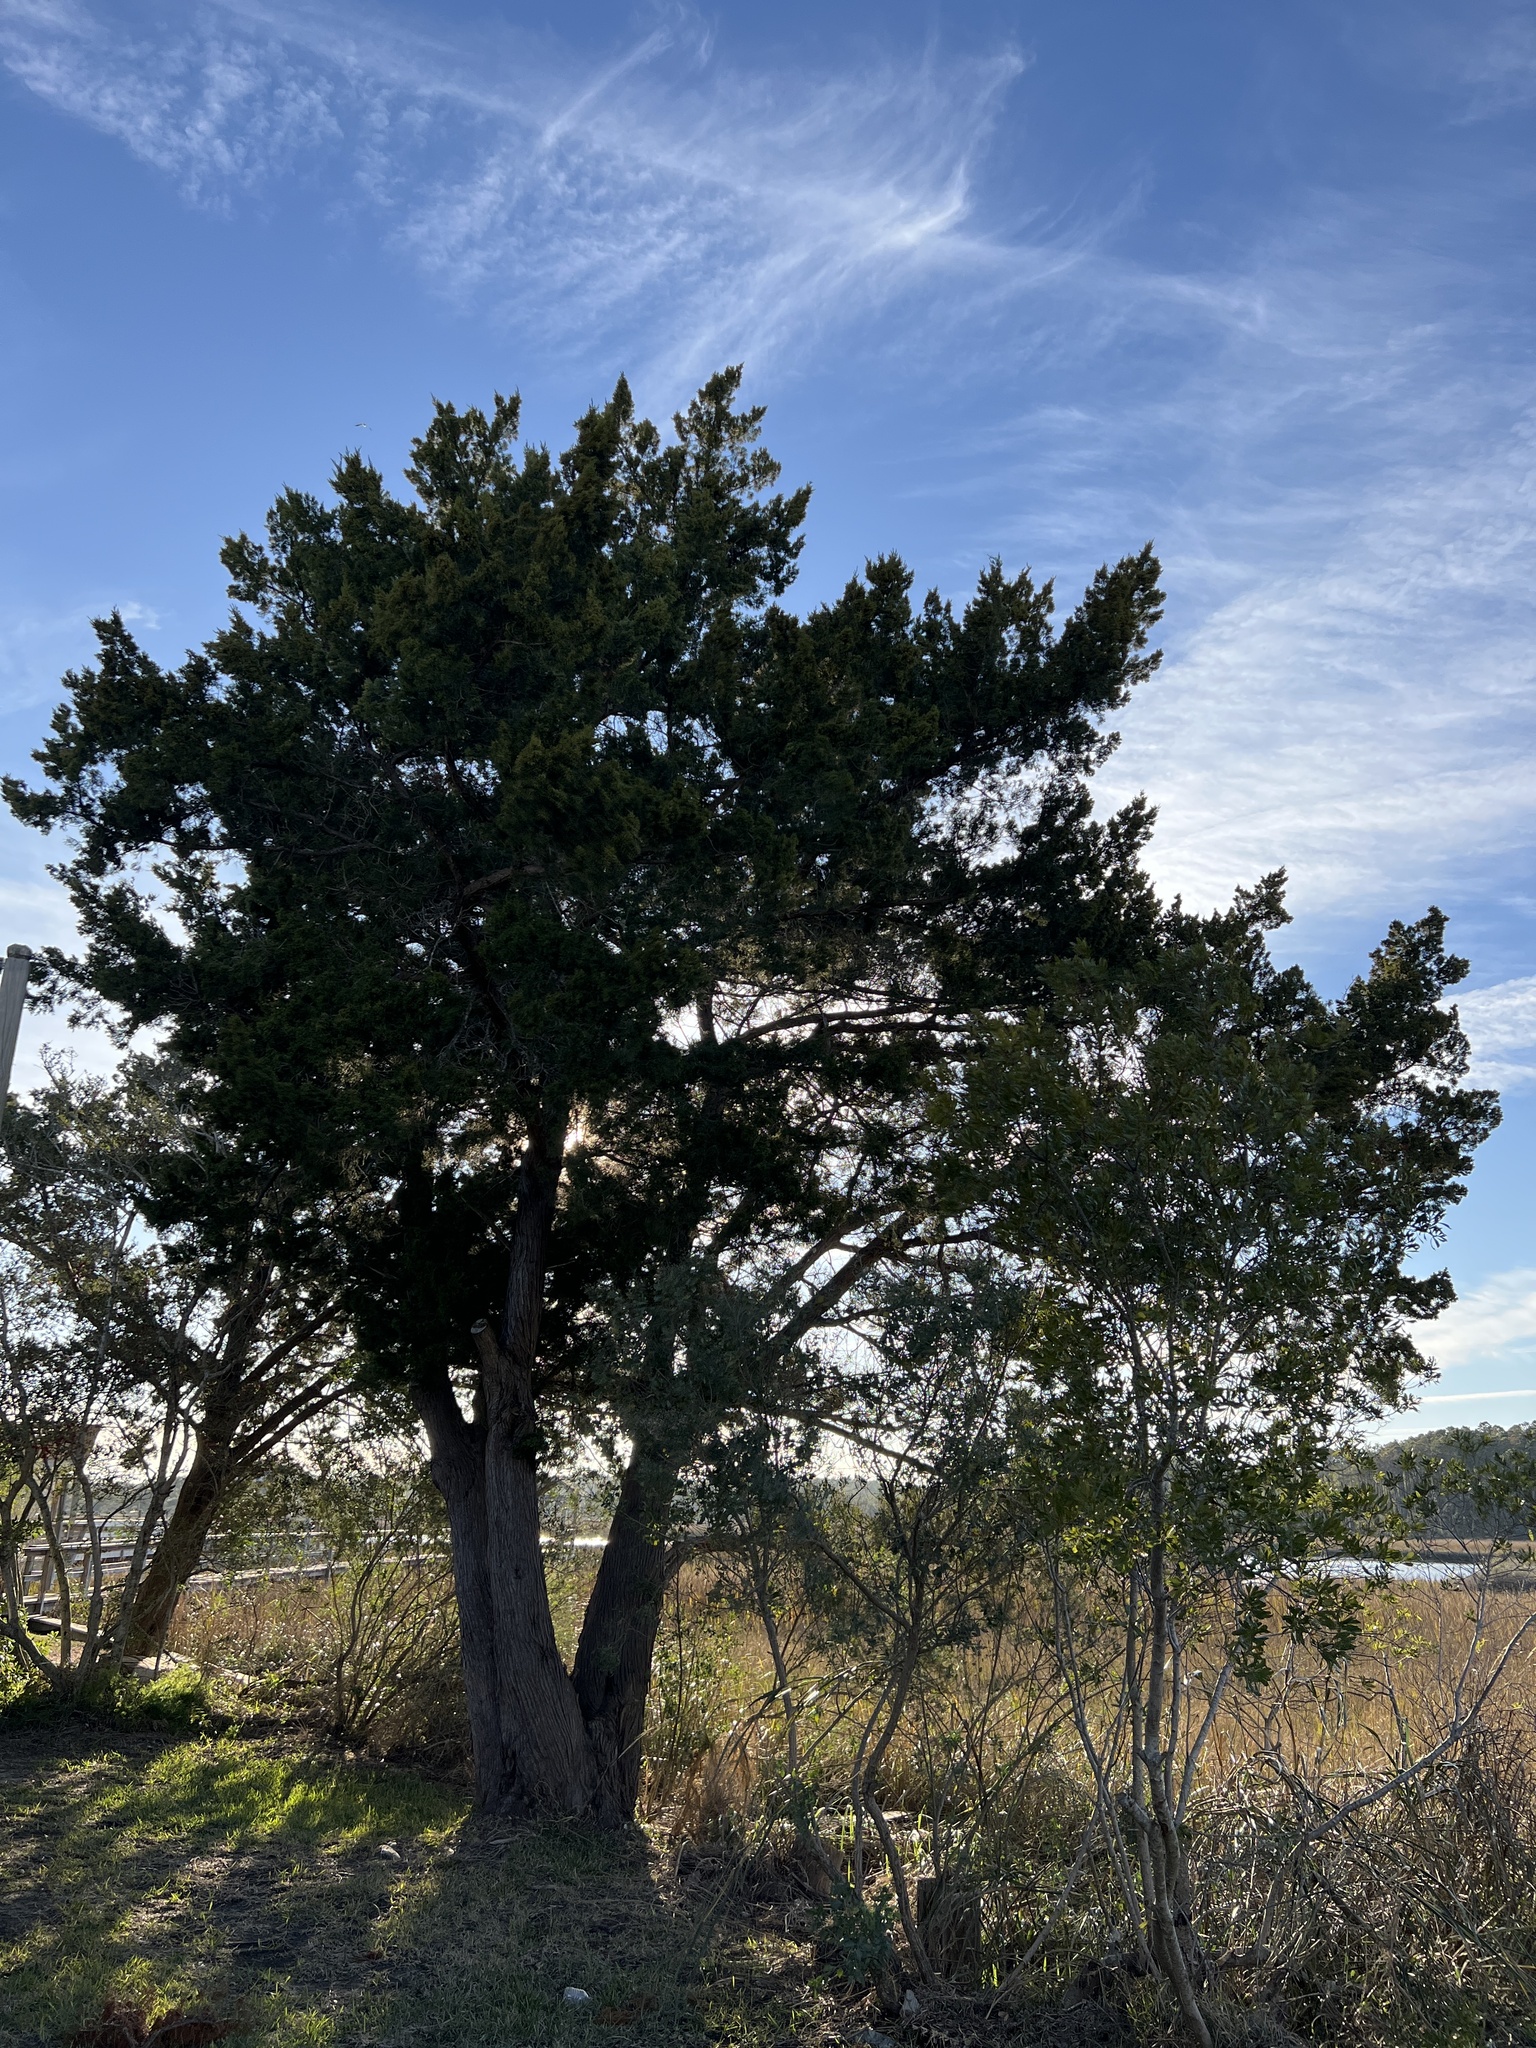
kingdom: Plantae
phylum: Tracheophyta
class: Pinopsida
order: Pinales
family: Cupressaceae
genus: Juniperus
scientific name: Juniperus virginiana
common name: Red juniper
